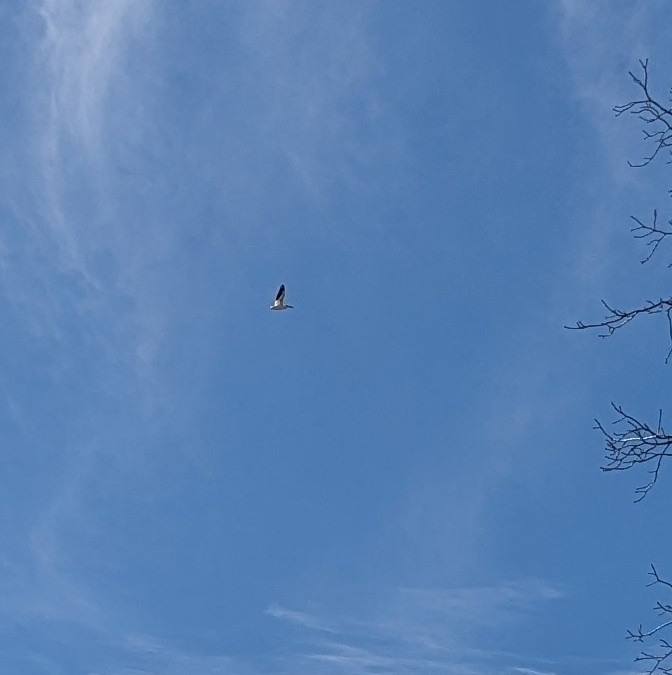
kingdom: Animalia
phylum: Chordata
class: Aves
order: Pelecaniformes
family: Pelecanidae
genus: Pelecanus
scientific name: Pelecanus erythrorhynchos
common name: American white pelican
